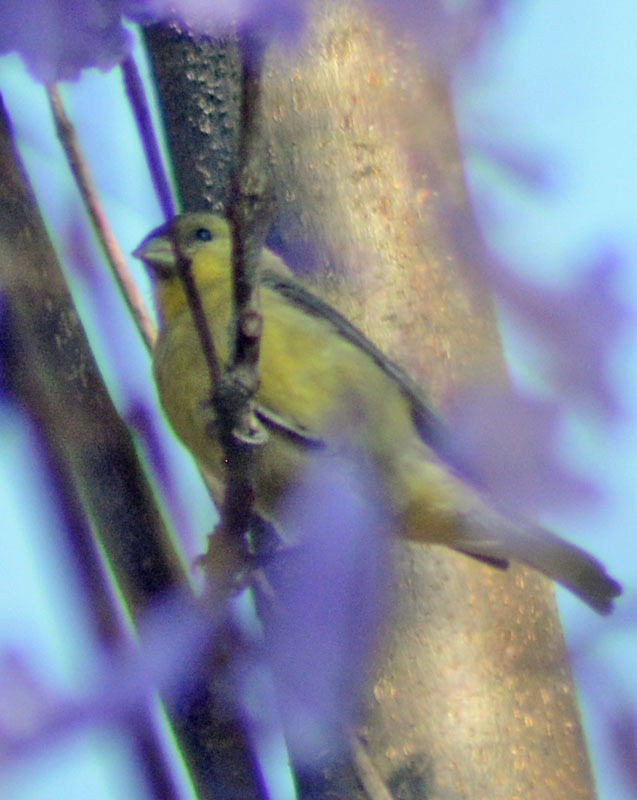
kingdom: Animalia
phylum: Chordata
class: Aves
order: Passeriformes
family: Fringillidae
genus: Spinus
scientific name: Spinus psaltria
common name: Lesser goldfinch
